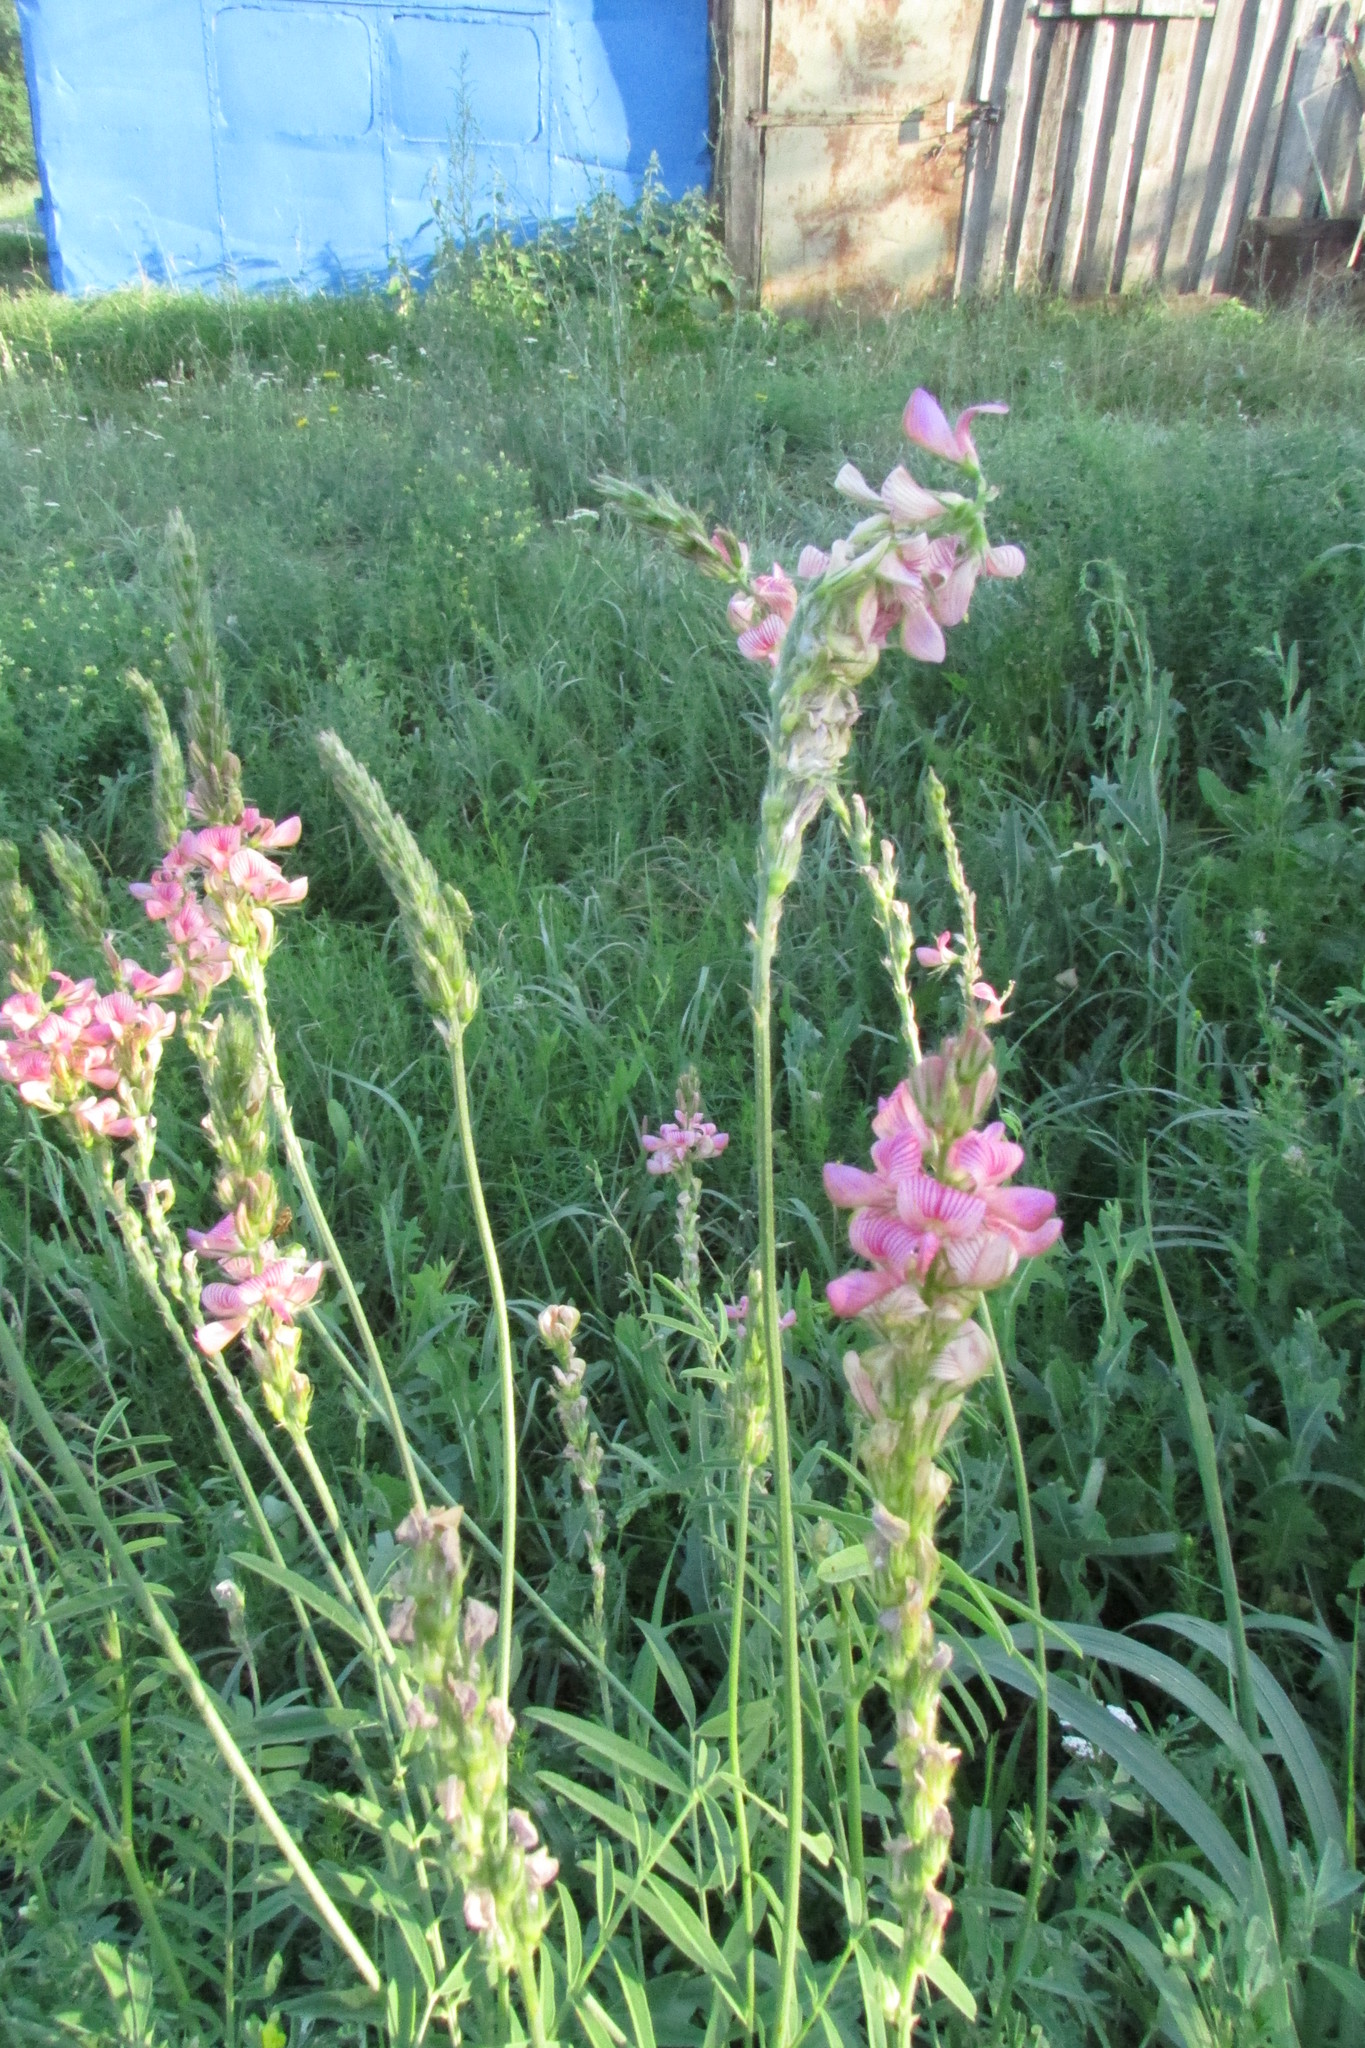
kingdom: Plantae
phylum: Tracheophyta
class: Magnoliopsida
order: Fabales
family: Fabaceae
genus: Onobrychis
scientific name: Onobrychis viciifolia
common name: Sainfoin
